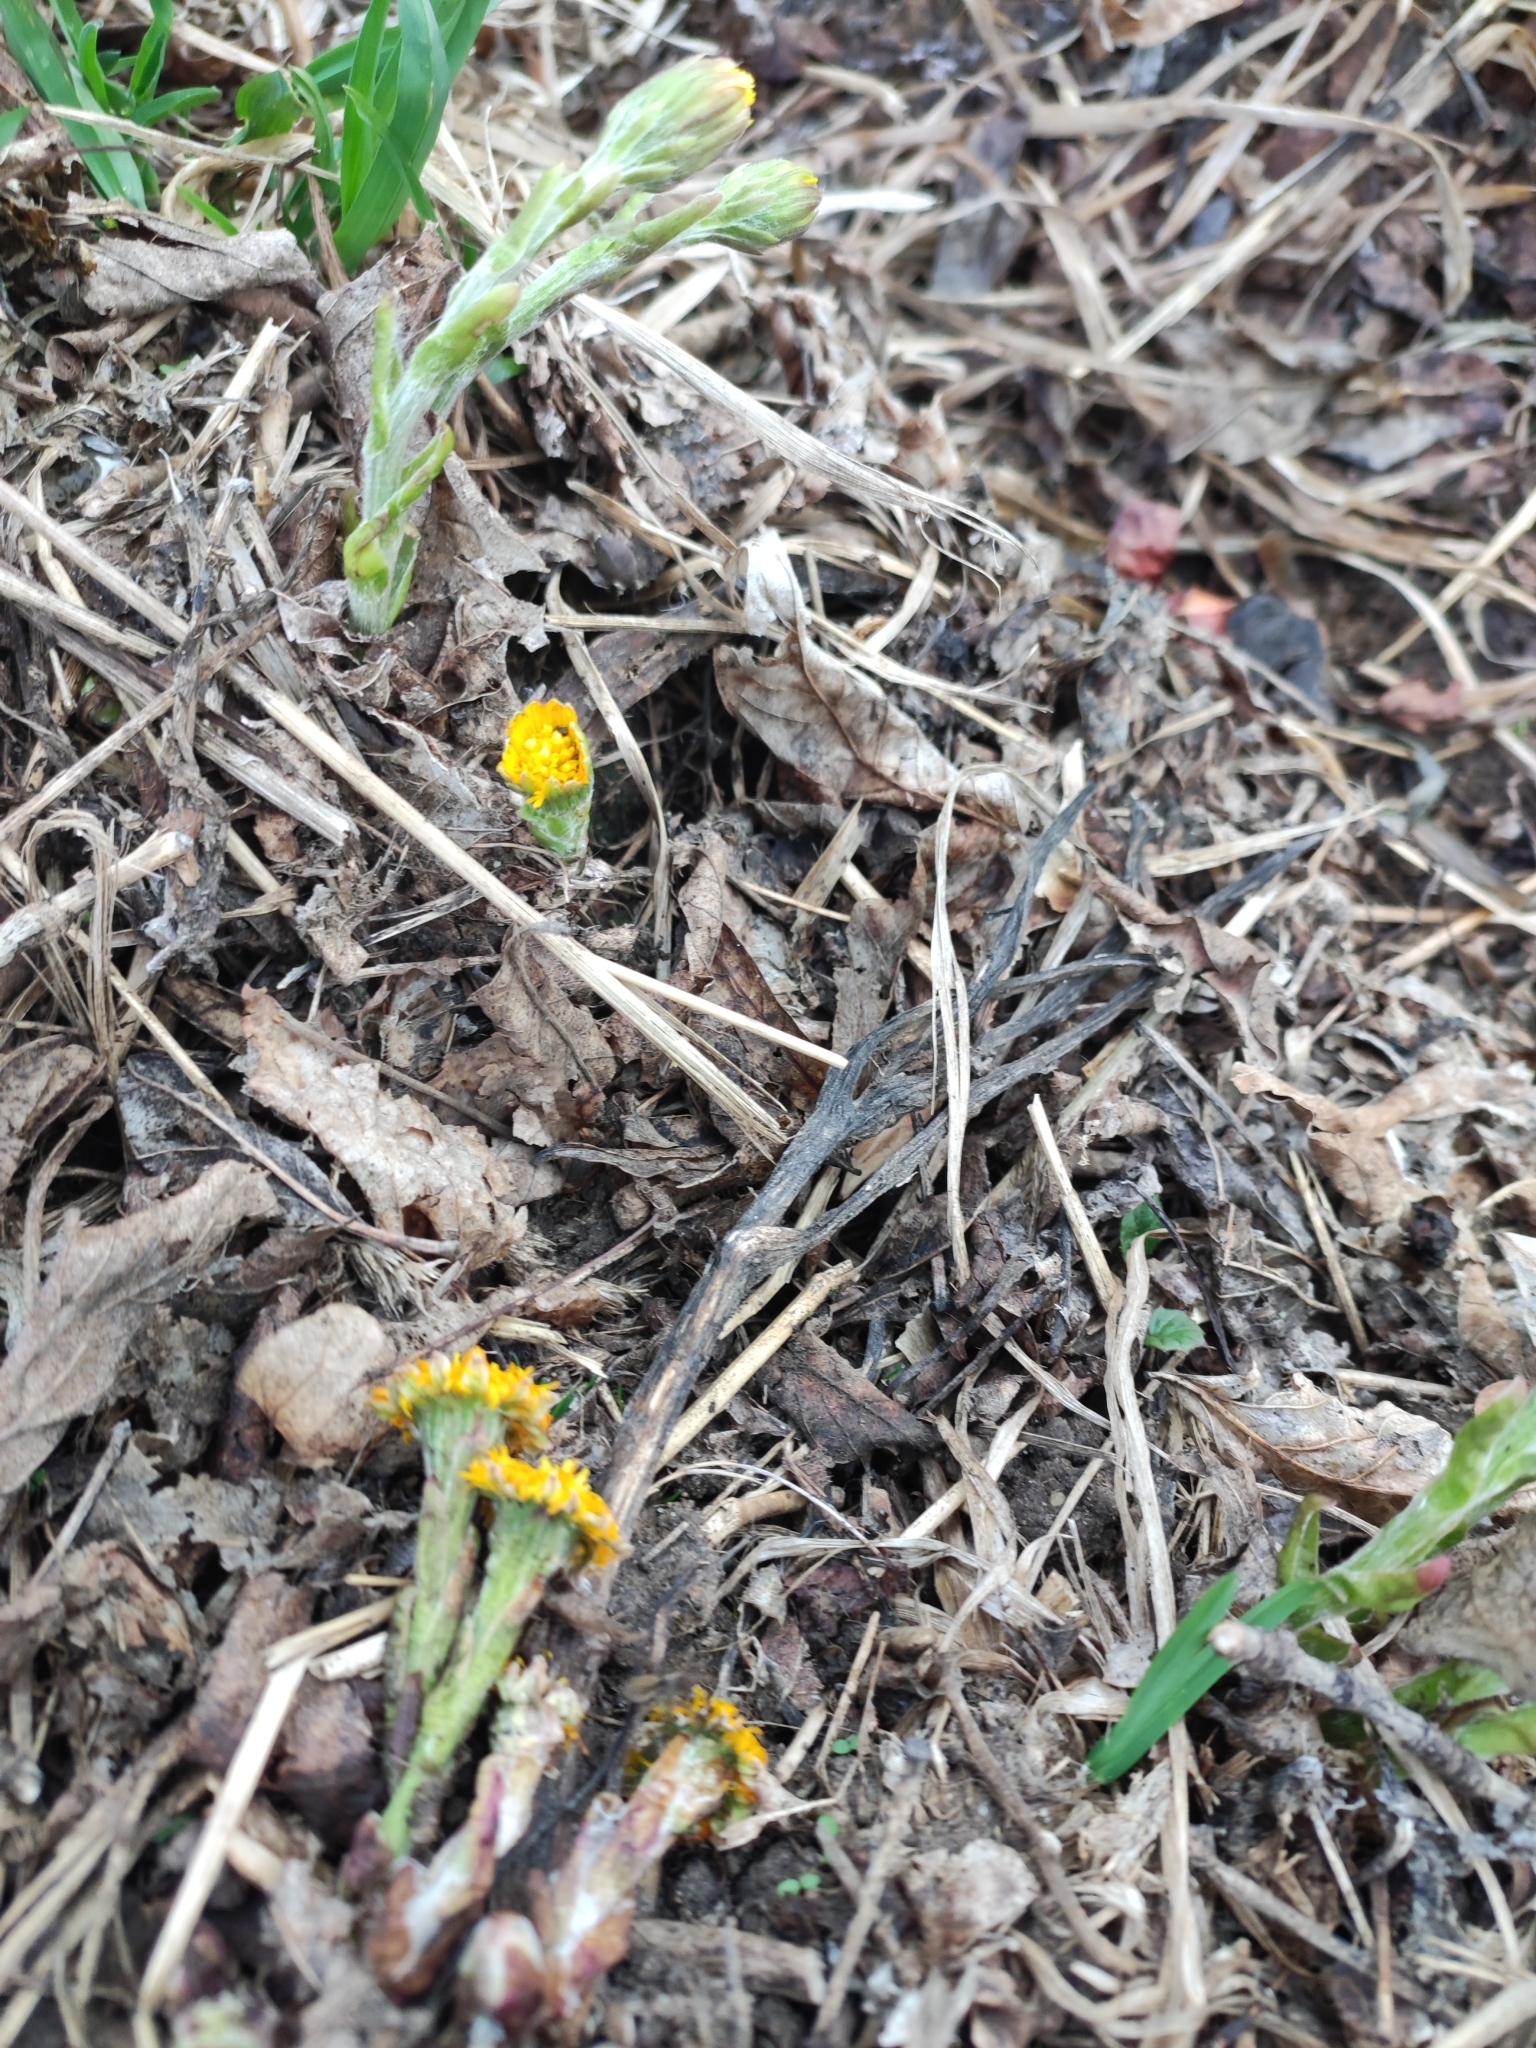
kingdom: Plantae
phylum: Tracheophyta
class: Magnoliopsida
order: Asterales
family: Asteraceae
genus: Tussilago
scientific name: Tussilago farfara
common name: Coltsfoot
